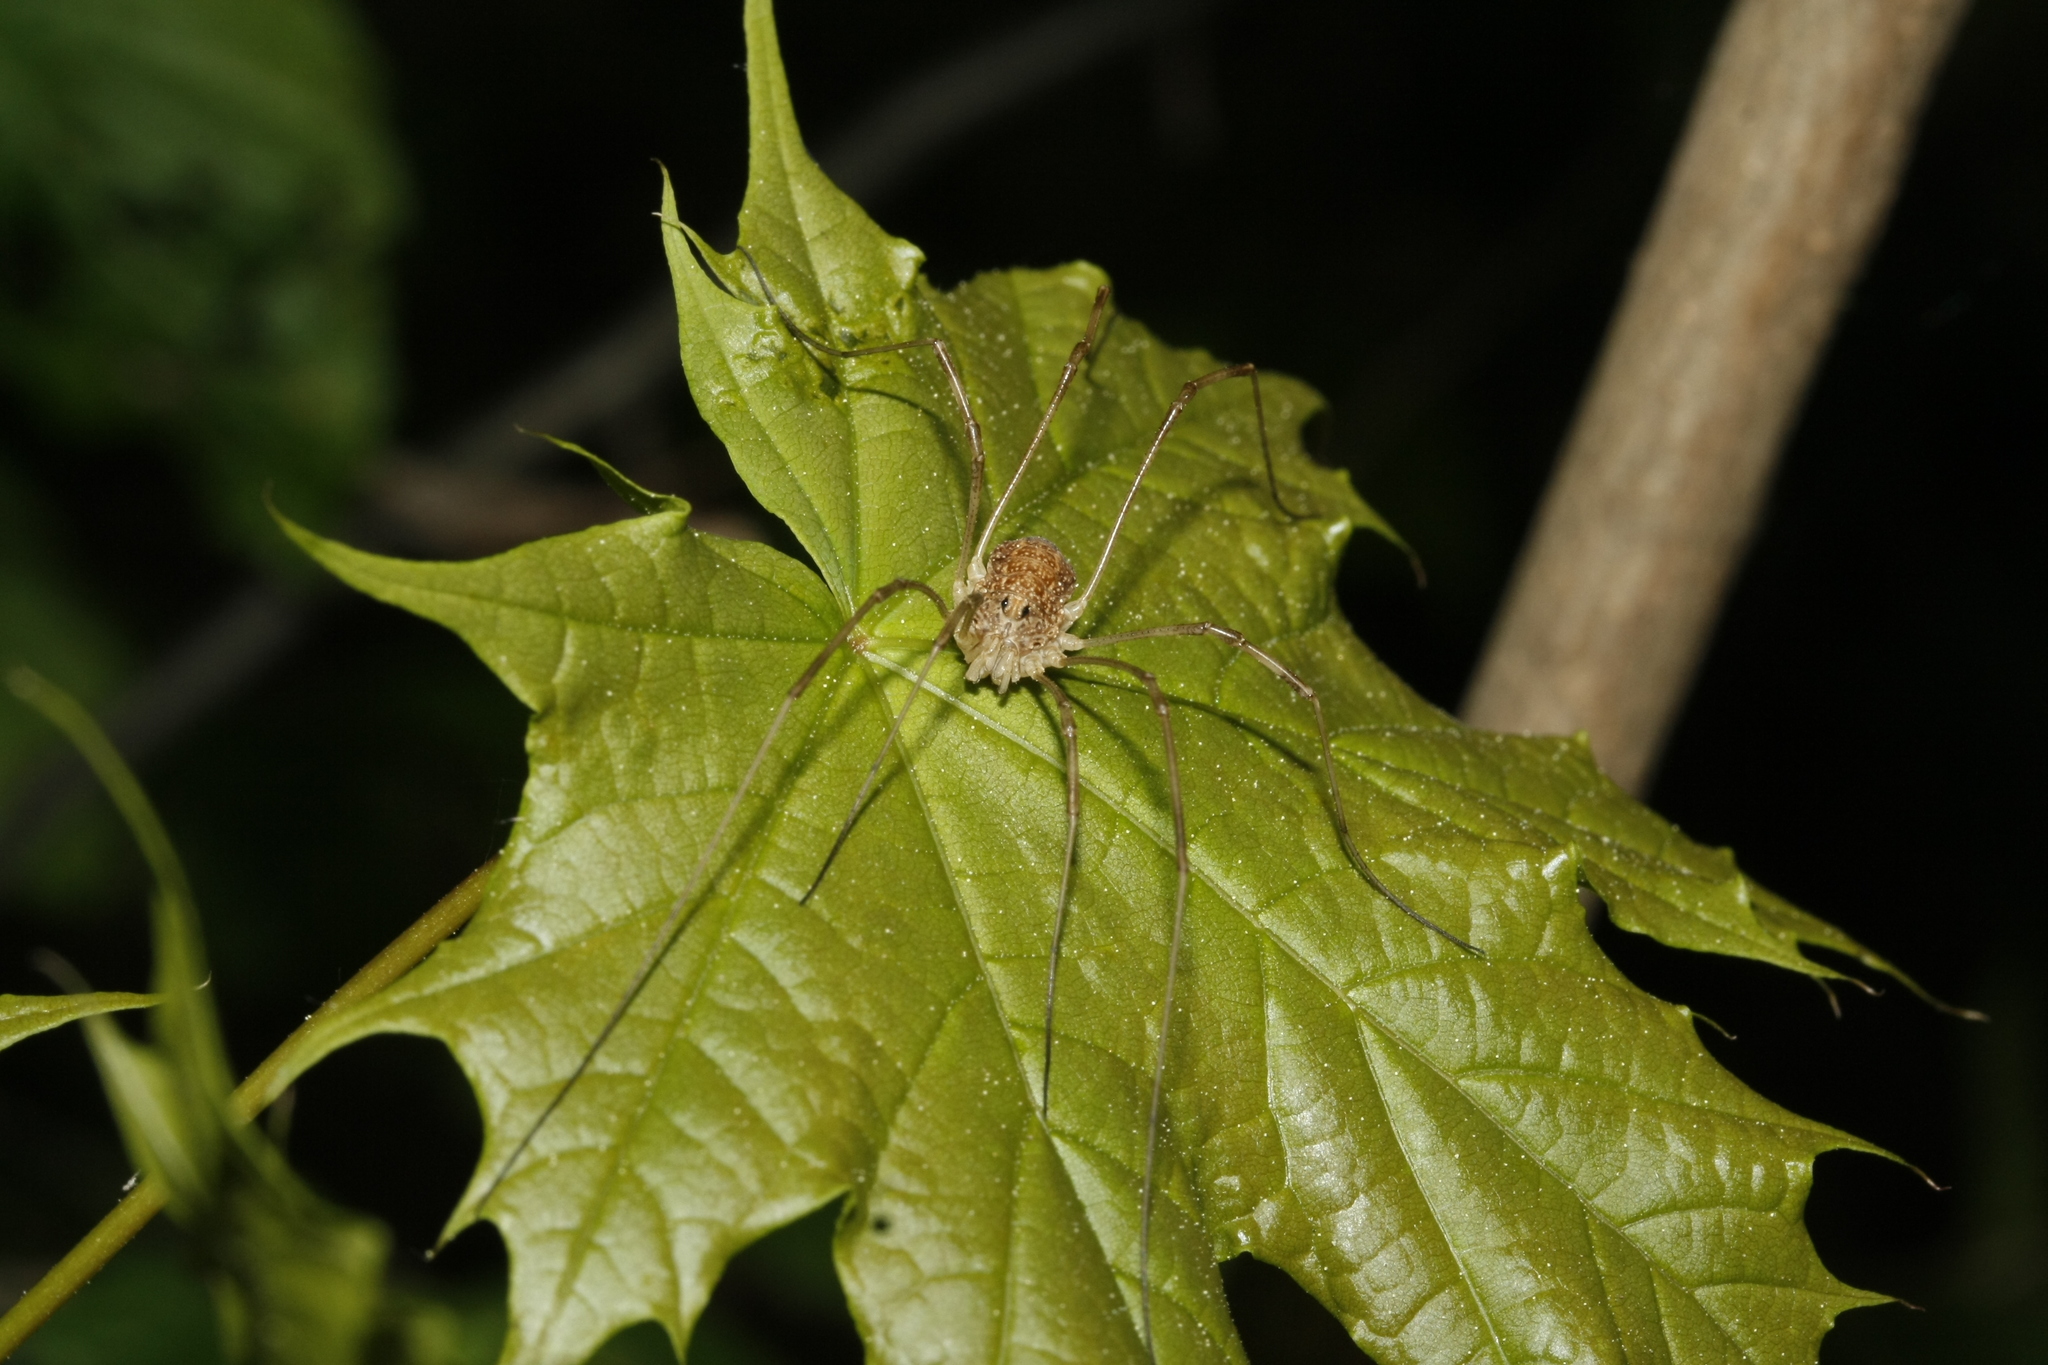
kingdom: Animalia
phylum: Arthropoda
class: Arachnida
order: Opiliones
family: Phalangiidae
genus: Rilaena
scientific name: Rilaena triangularis
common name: Spring harvestman
